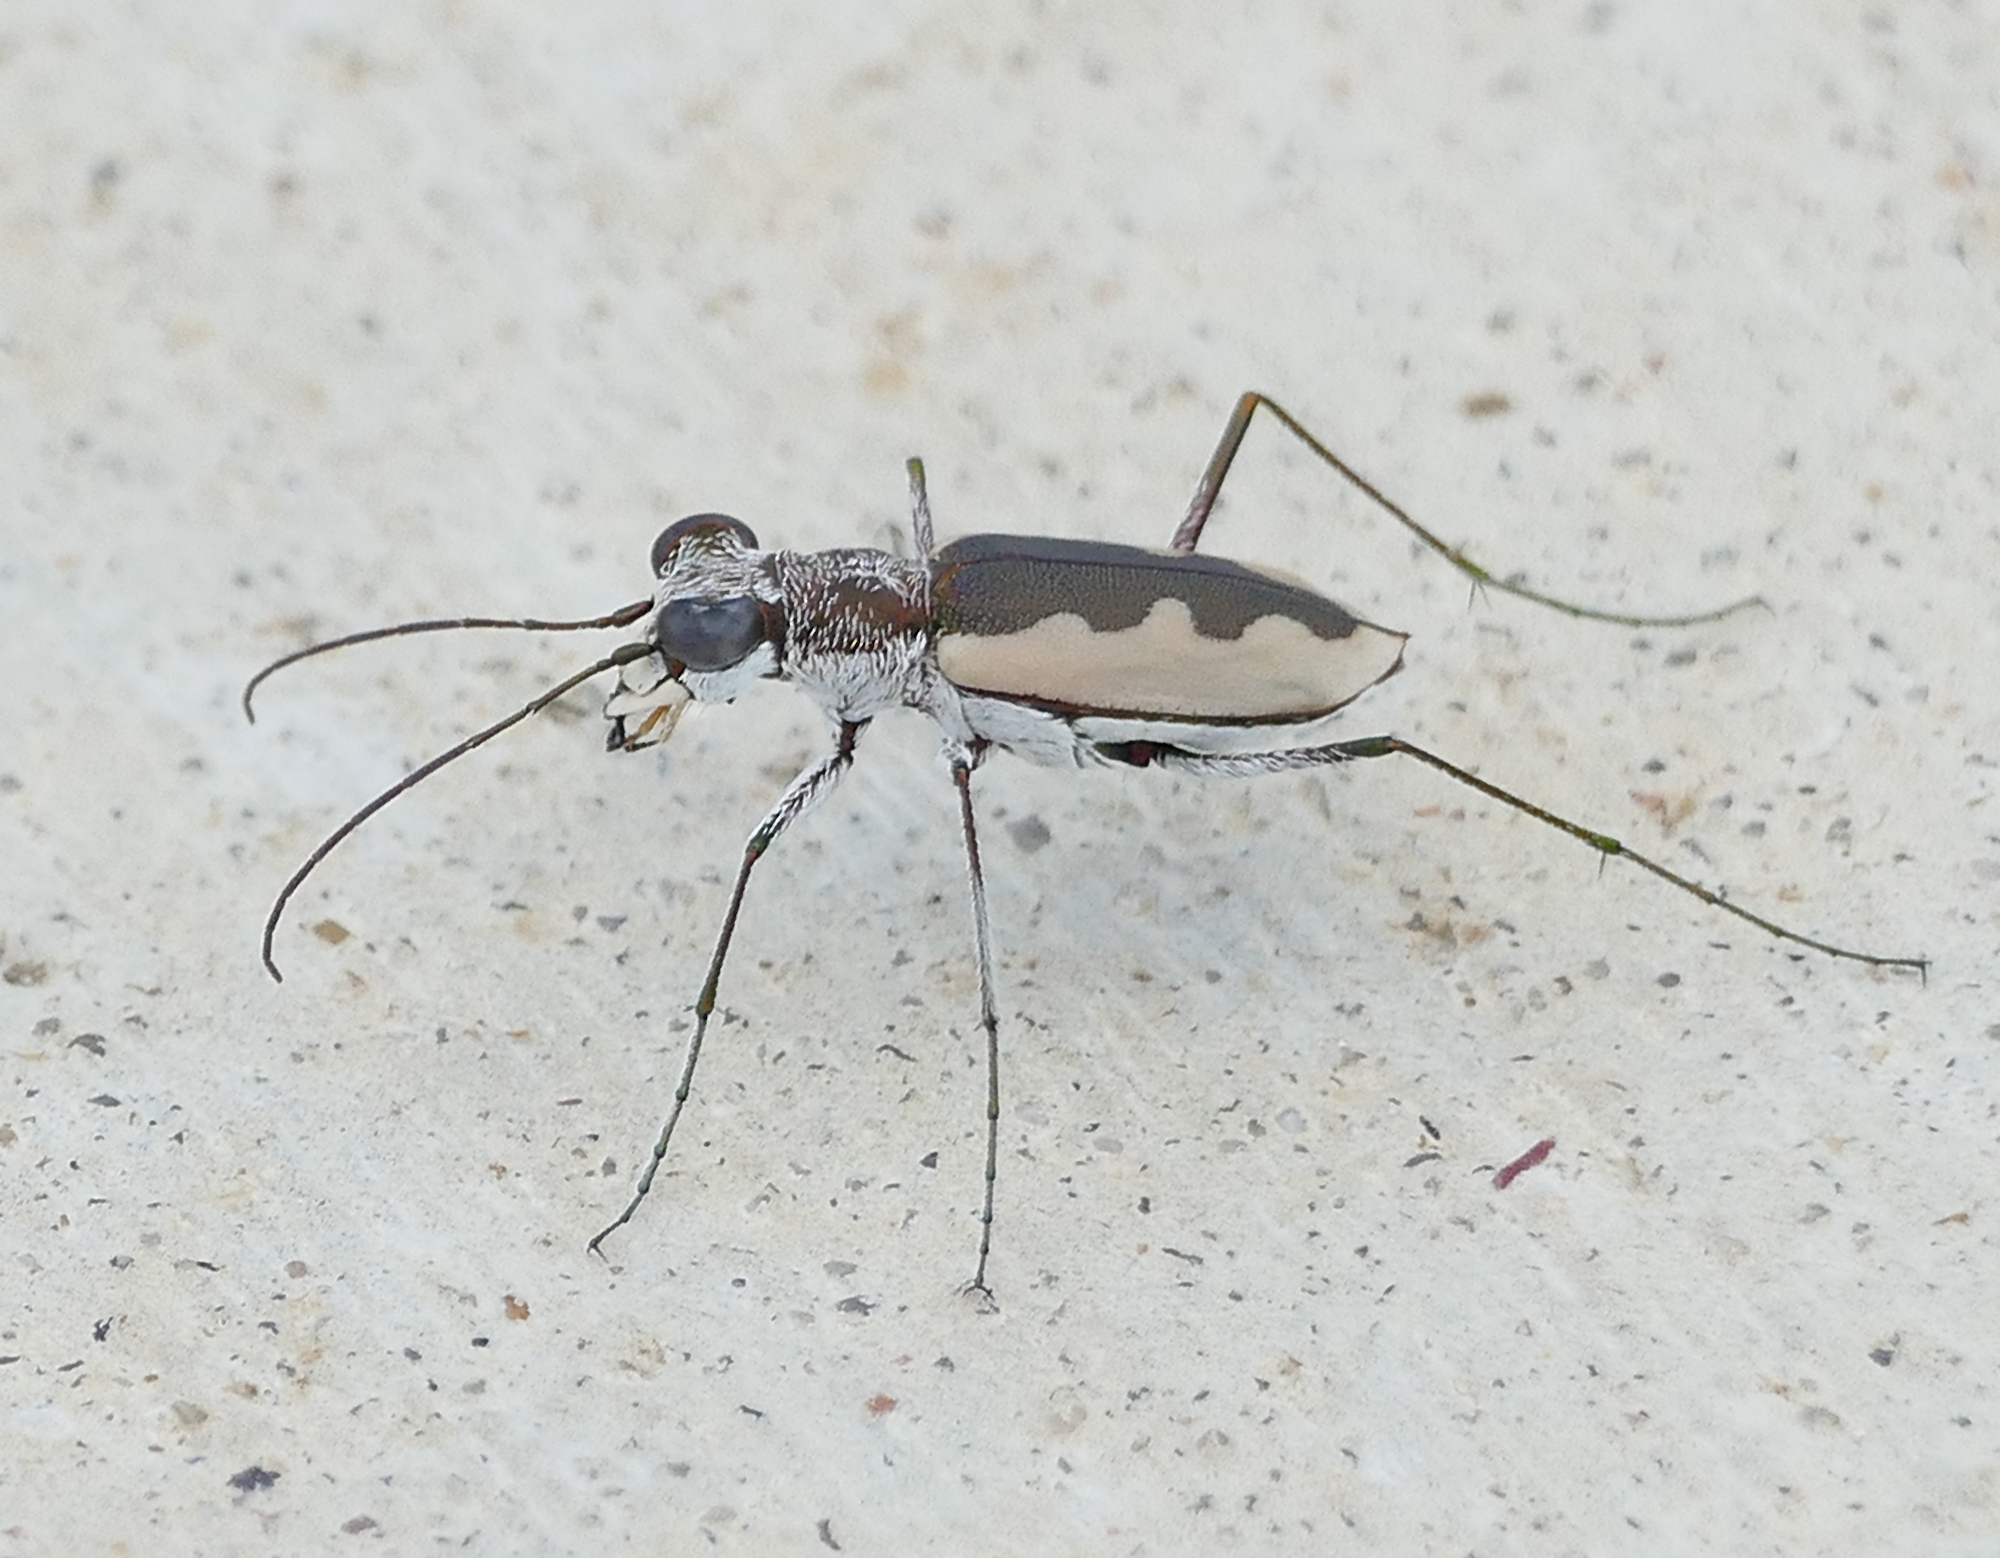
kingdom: Animalia
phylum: Arthropoda
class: Insecta
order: Coleoptera
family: Carabidae
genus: Eunota
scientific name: Eunota togata
